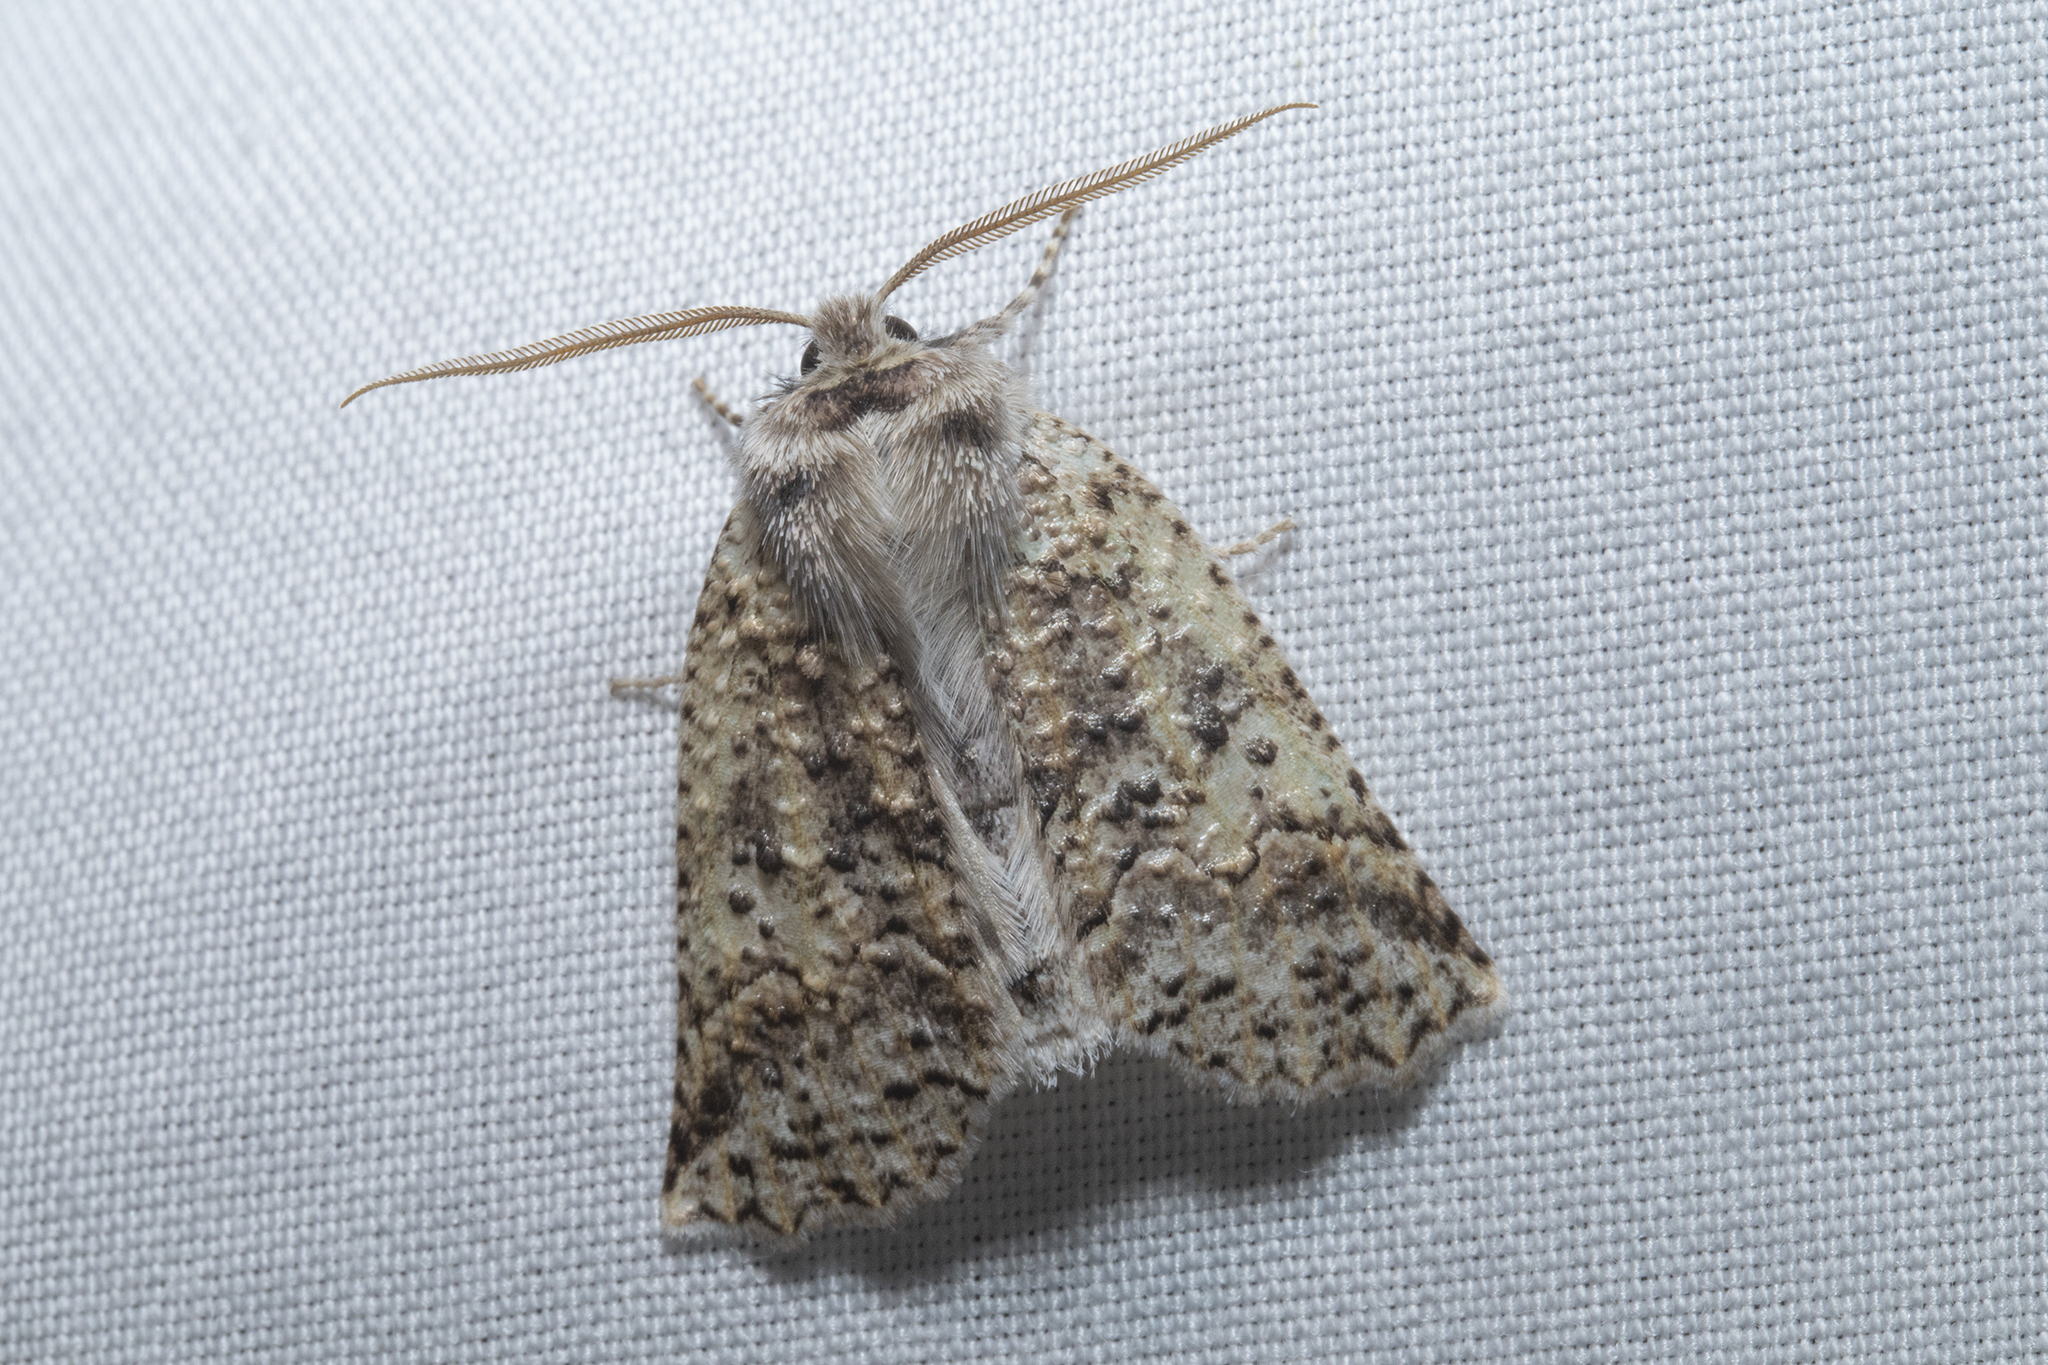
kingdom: Animalia
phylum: Arthropoda
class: Insecta
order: Lepidoptera
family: Geometridae
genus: Declana
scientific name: Declana floccosa
